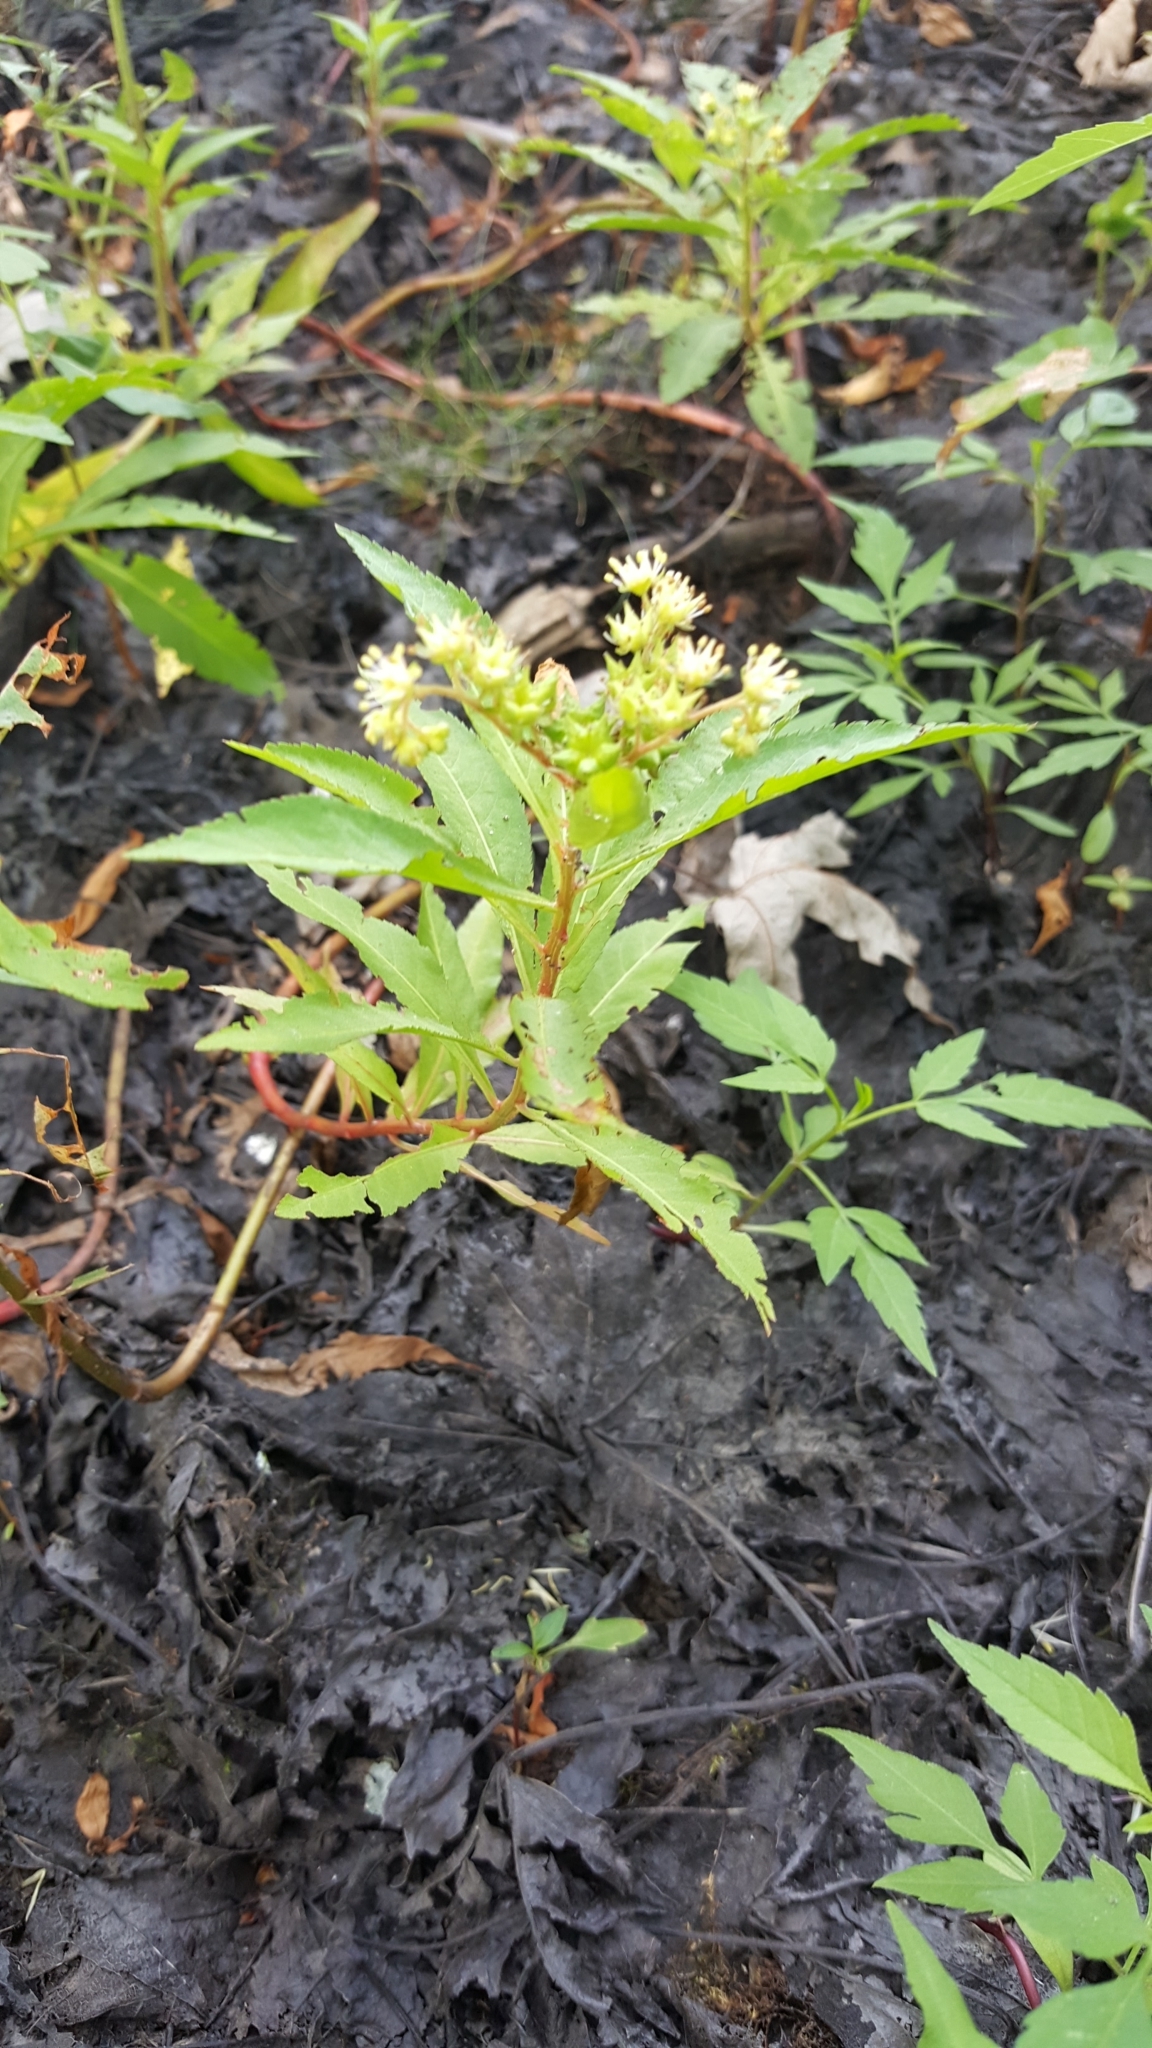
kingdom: Plantae
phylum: Tracheophyta
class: Magnoliopsida
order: Saxifragales
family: Penthoraceae
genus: Penthorum
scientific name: Penthorum sedoides
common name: Ditch stonecrop
